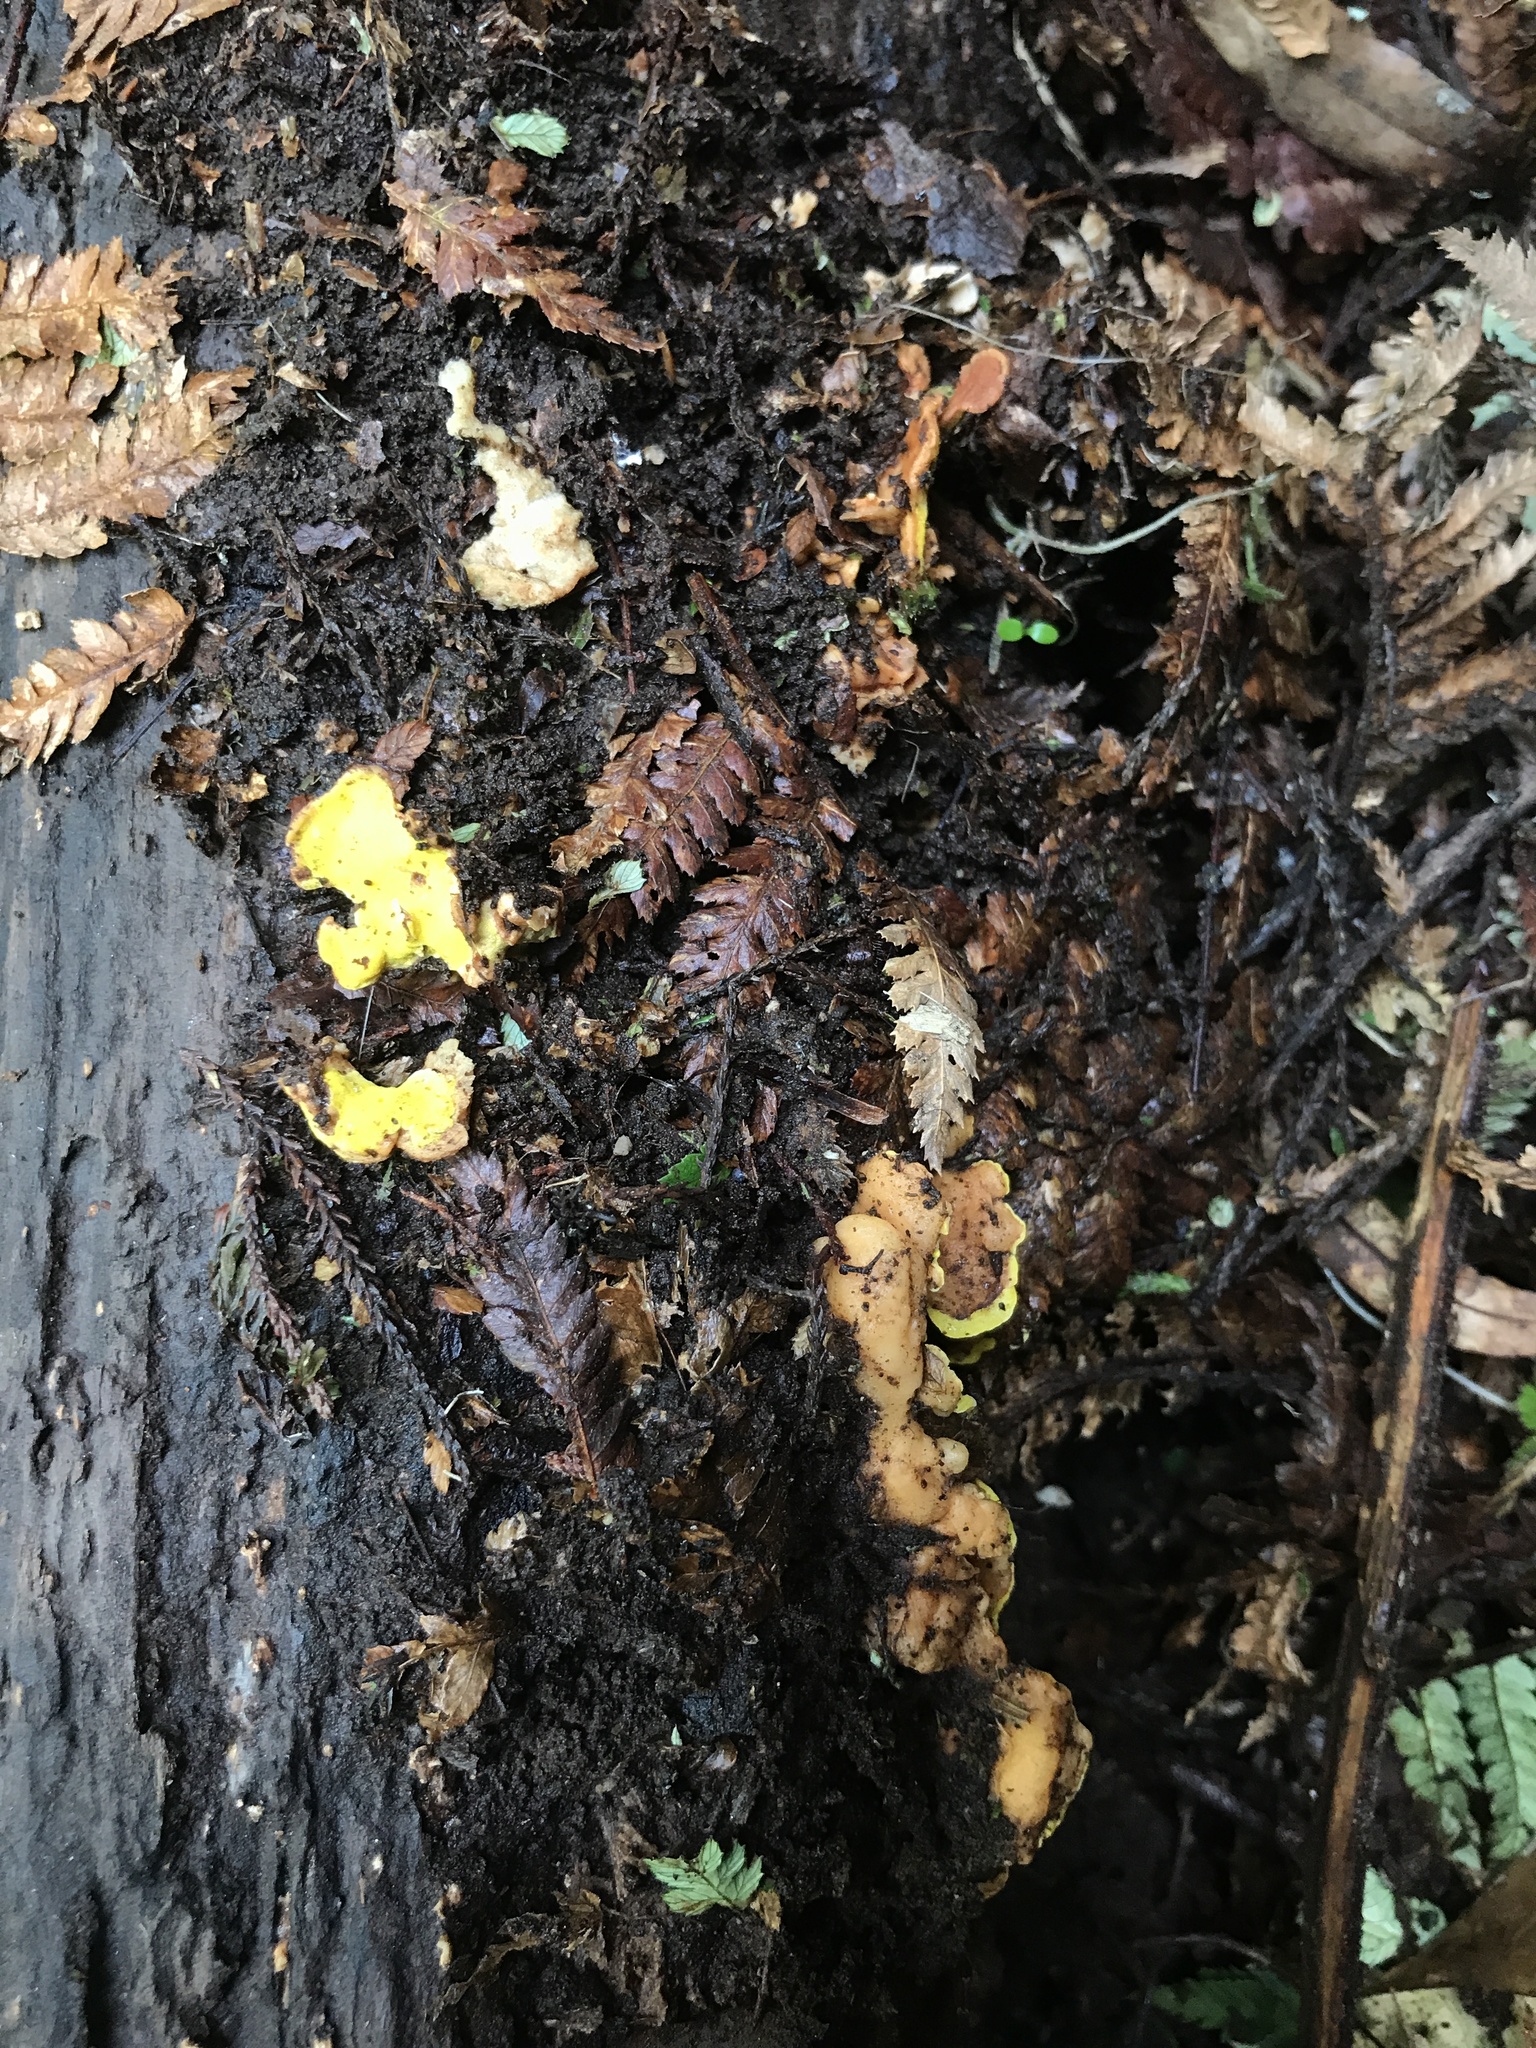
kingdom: Fungi
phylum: Basidiomycota
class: Agaricomycetes
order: Polyporales
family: Steccherinaceae
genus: Austeria
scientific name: Austeria citrea
